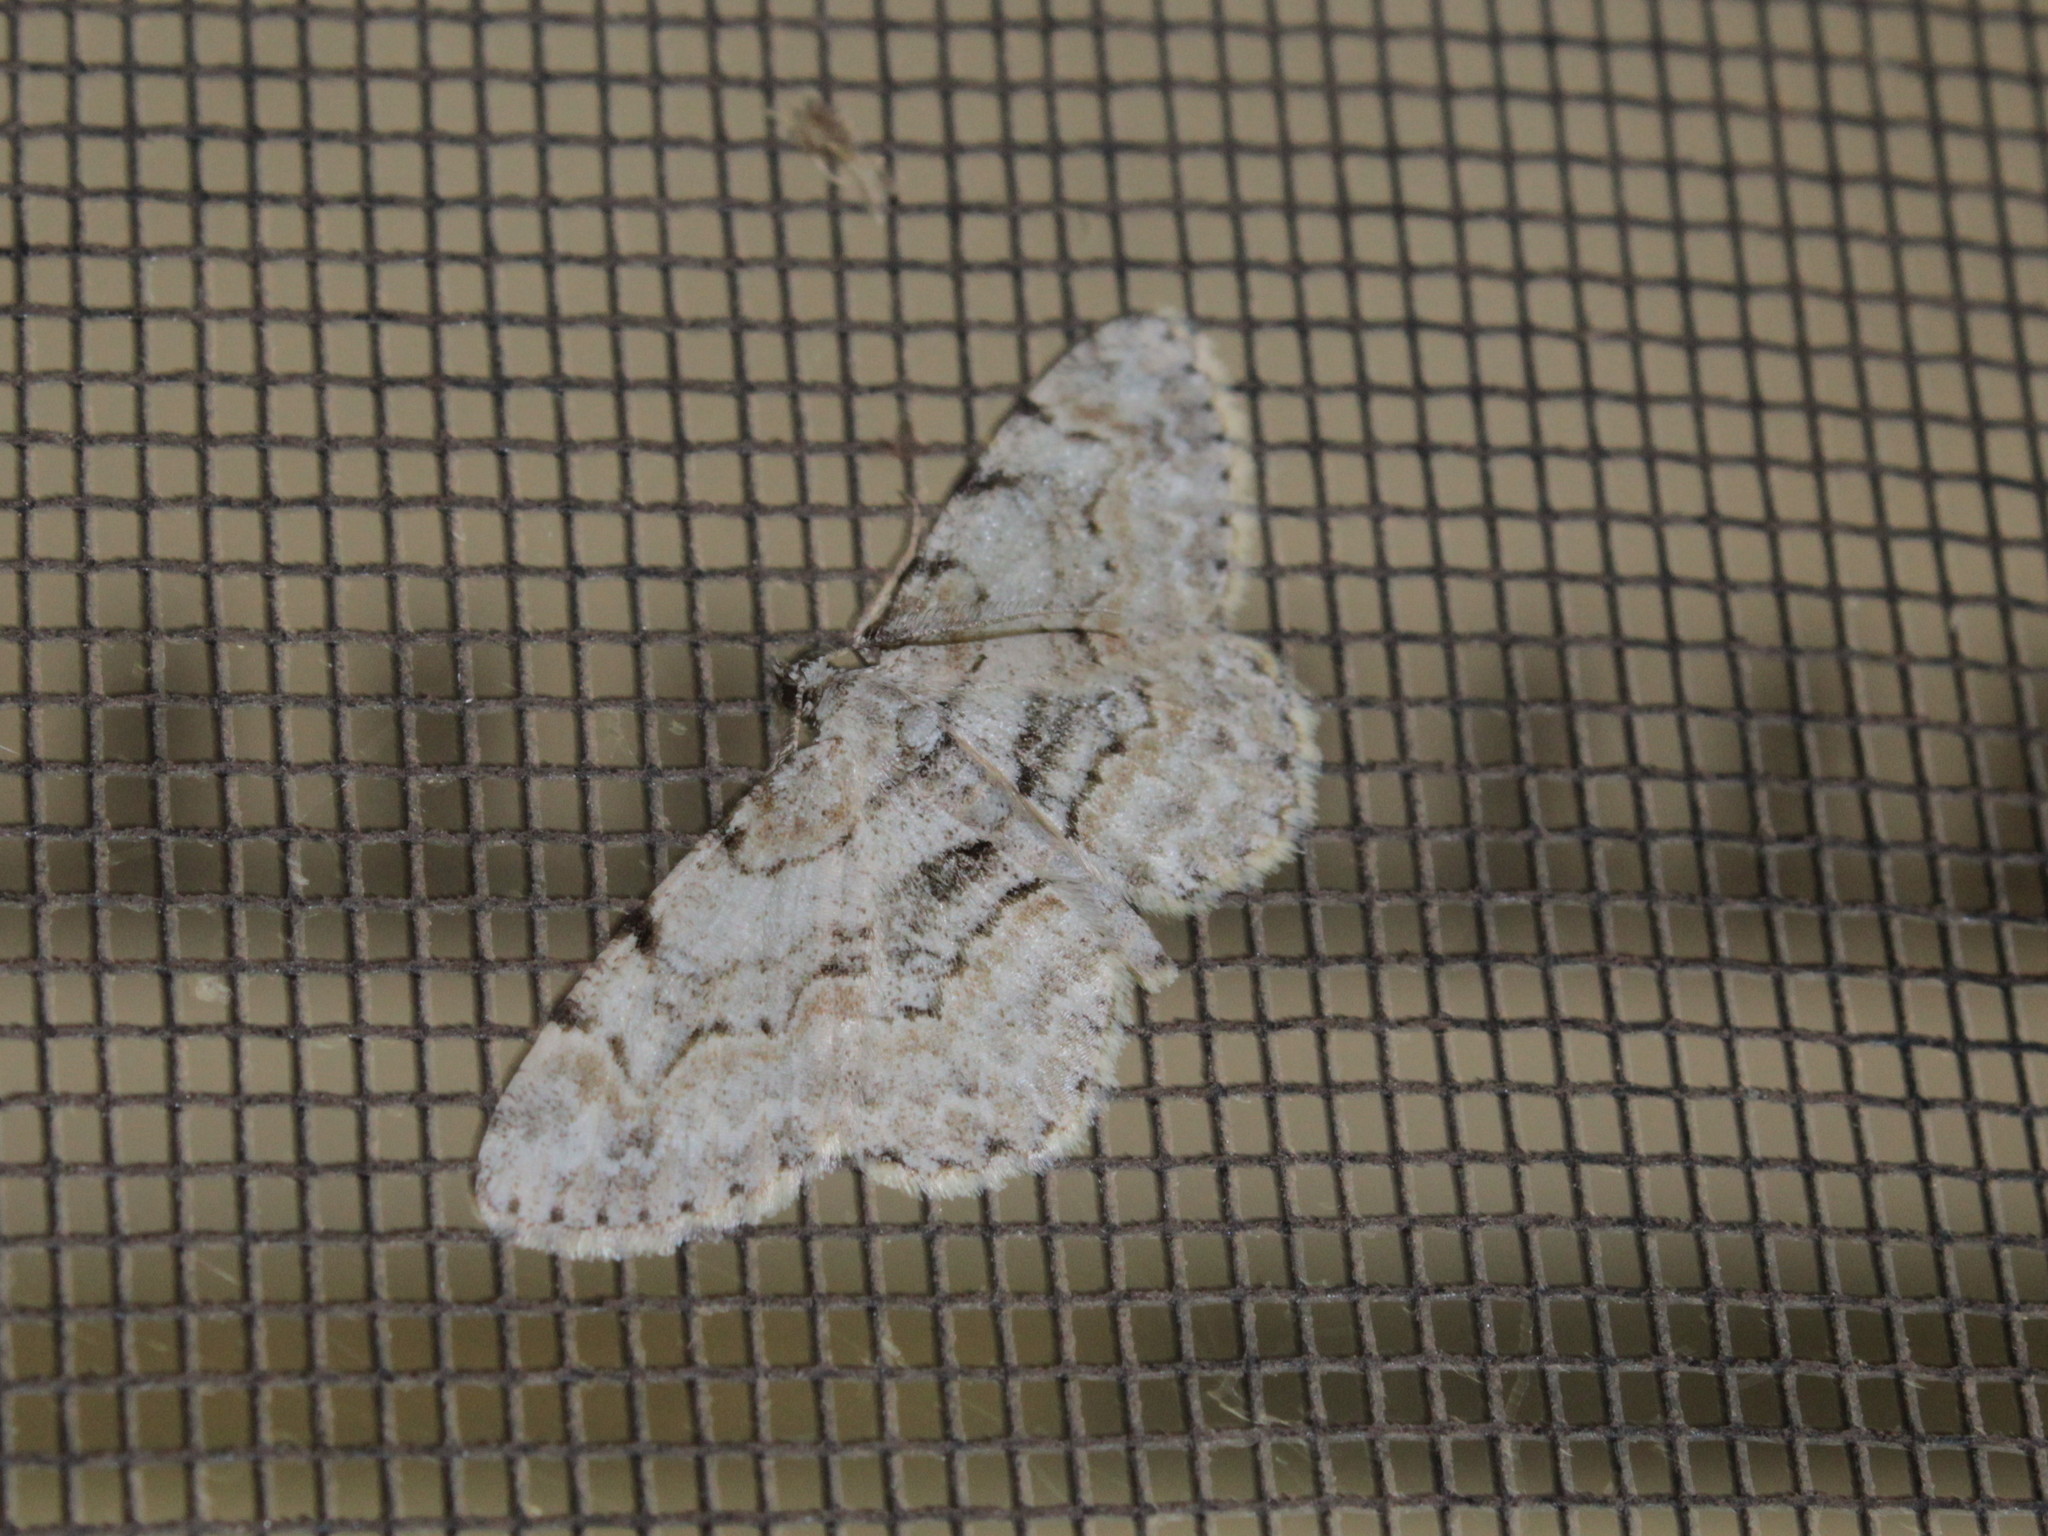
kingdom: Animalia
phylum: Arthropoda
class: Insecta
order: Lepidoptera
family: Geometridae
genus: Iridopsis
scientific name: Iridopsis ephyraria
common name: Pale-winged gray
